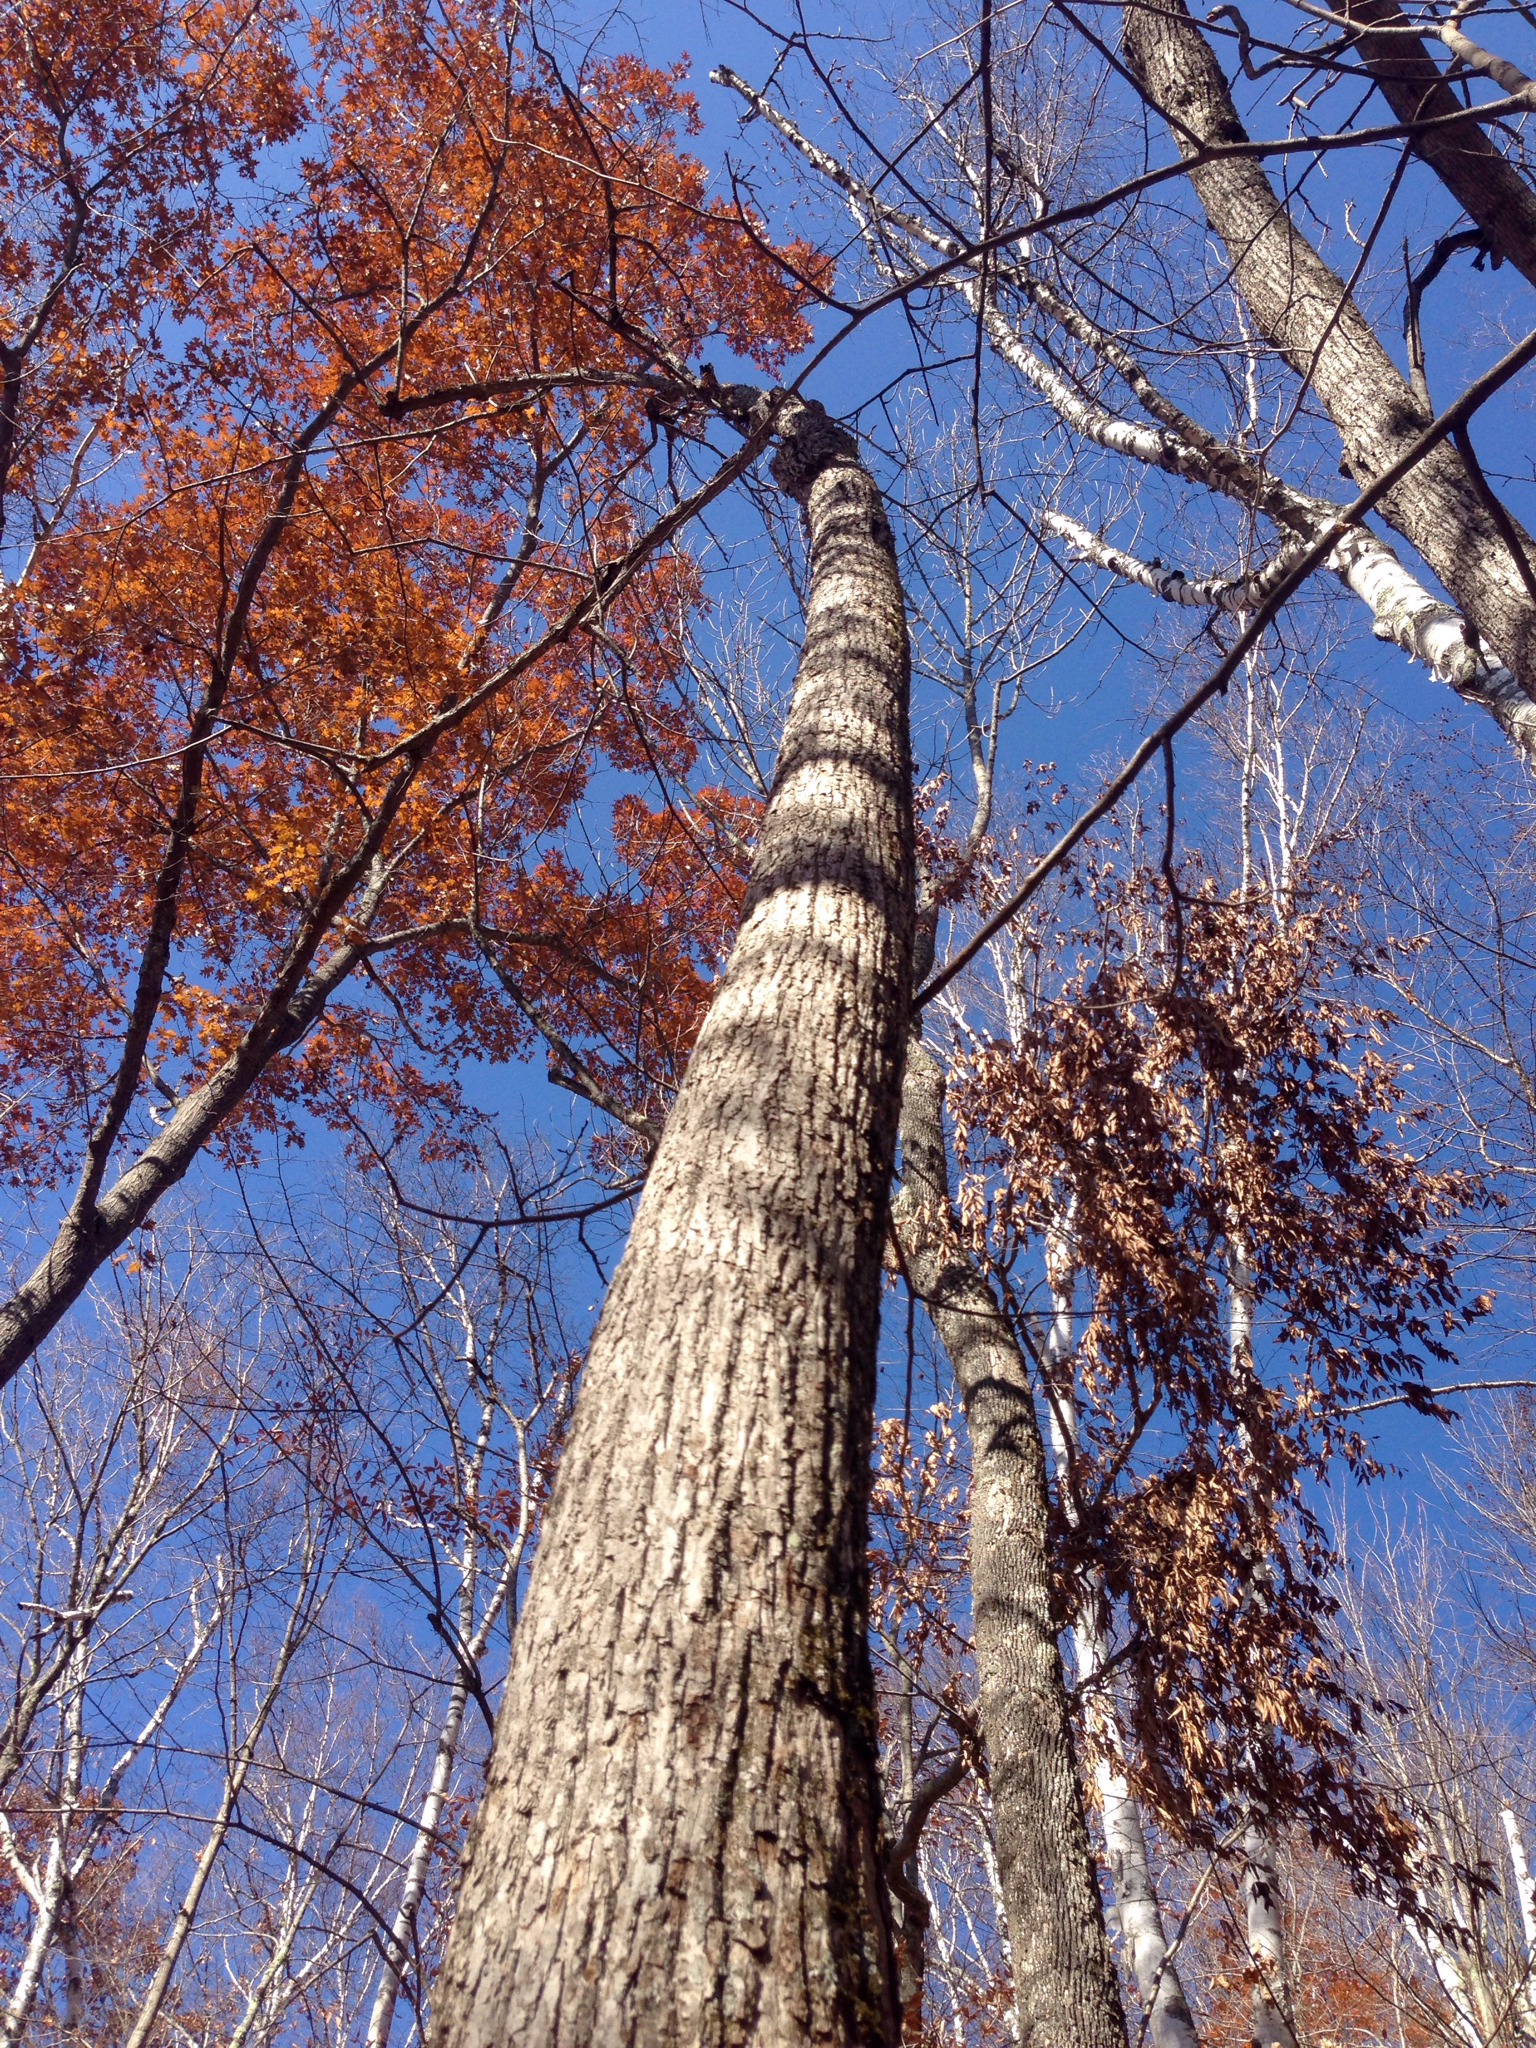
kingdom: Plantae
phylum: Tracheophyta
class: Magnoliopsida
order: Malvales
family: Malvaceae
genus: Tilia
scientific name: Tilia americana
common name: Basswood
